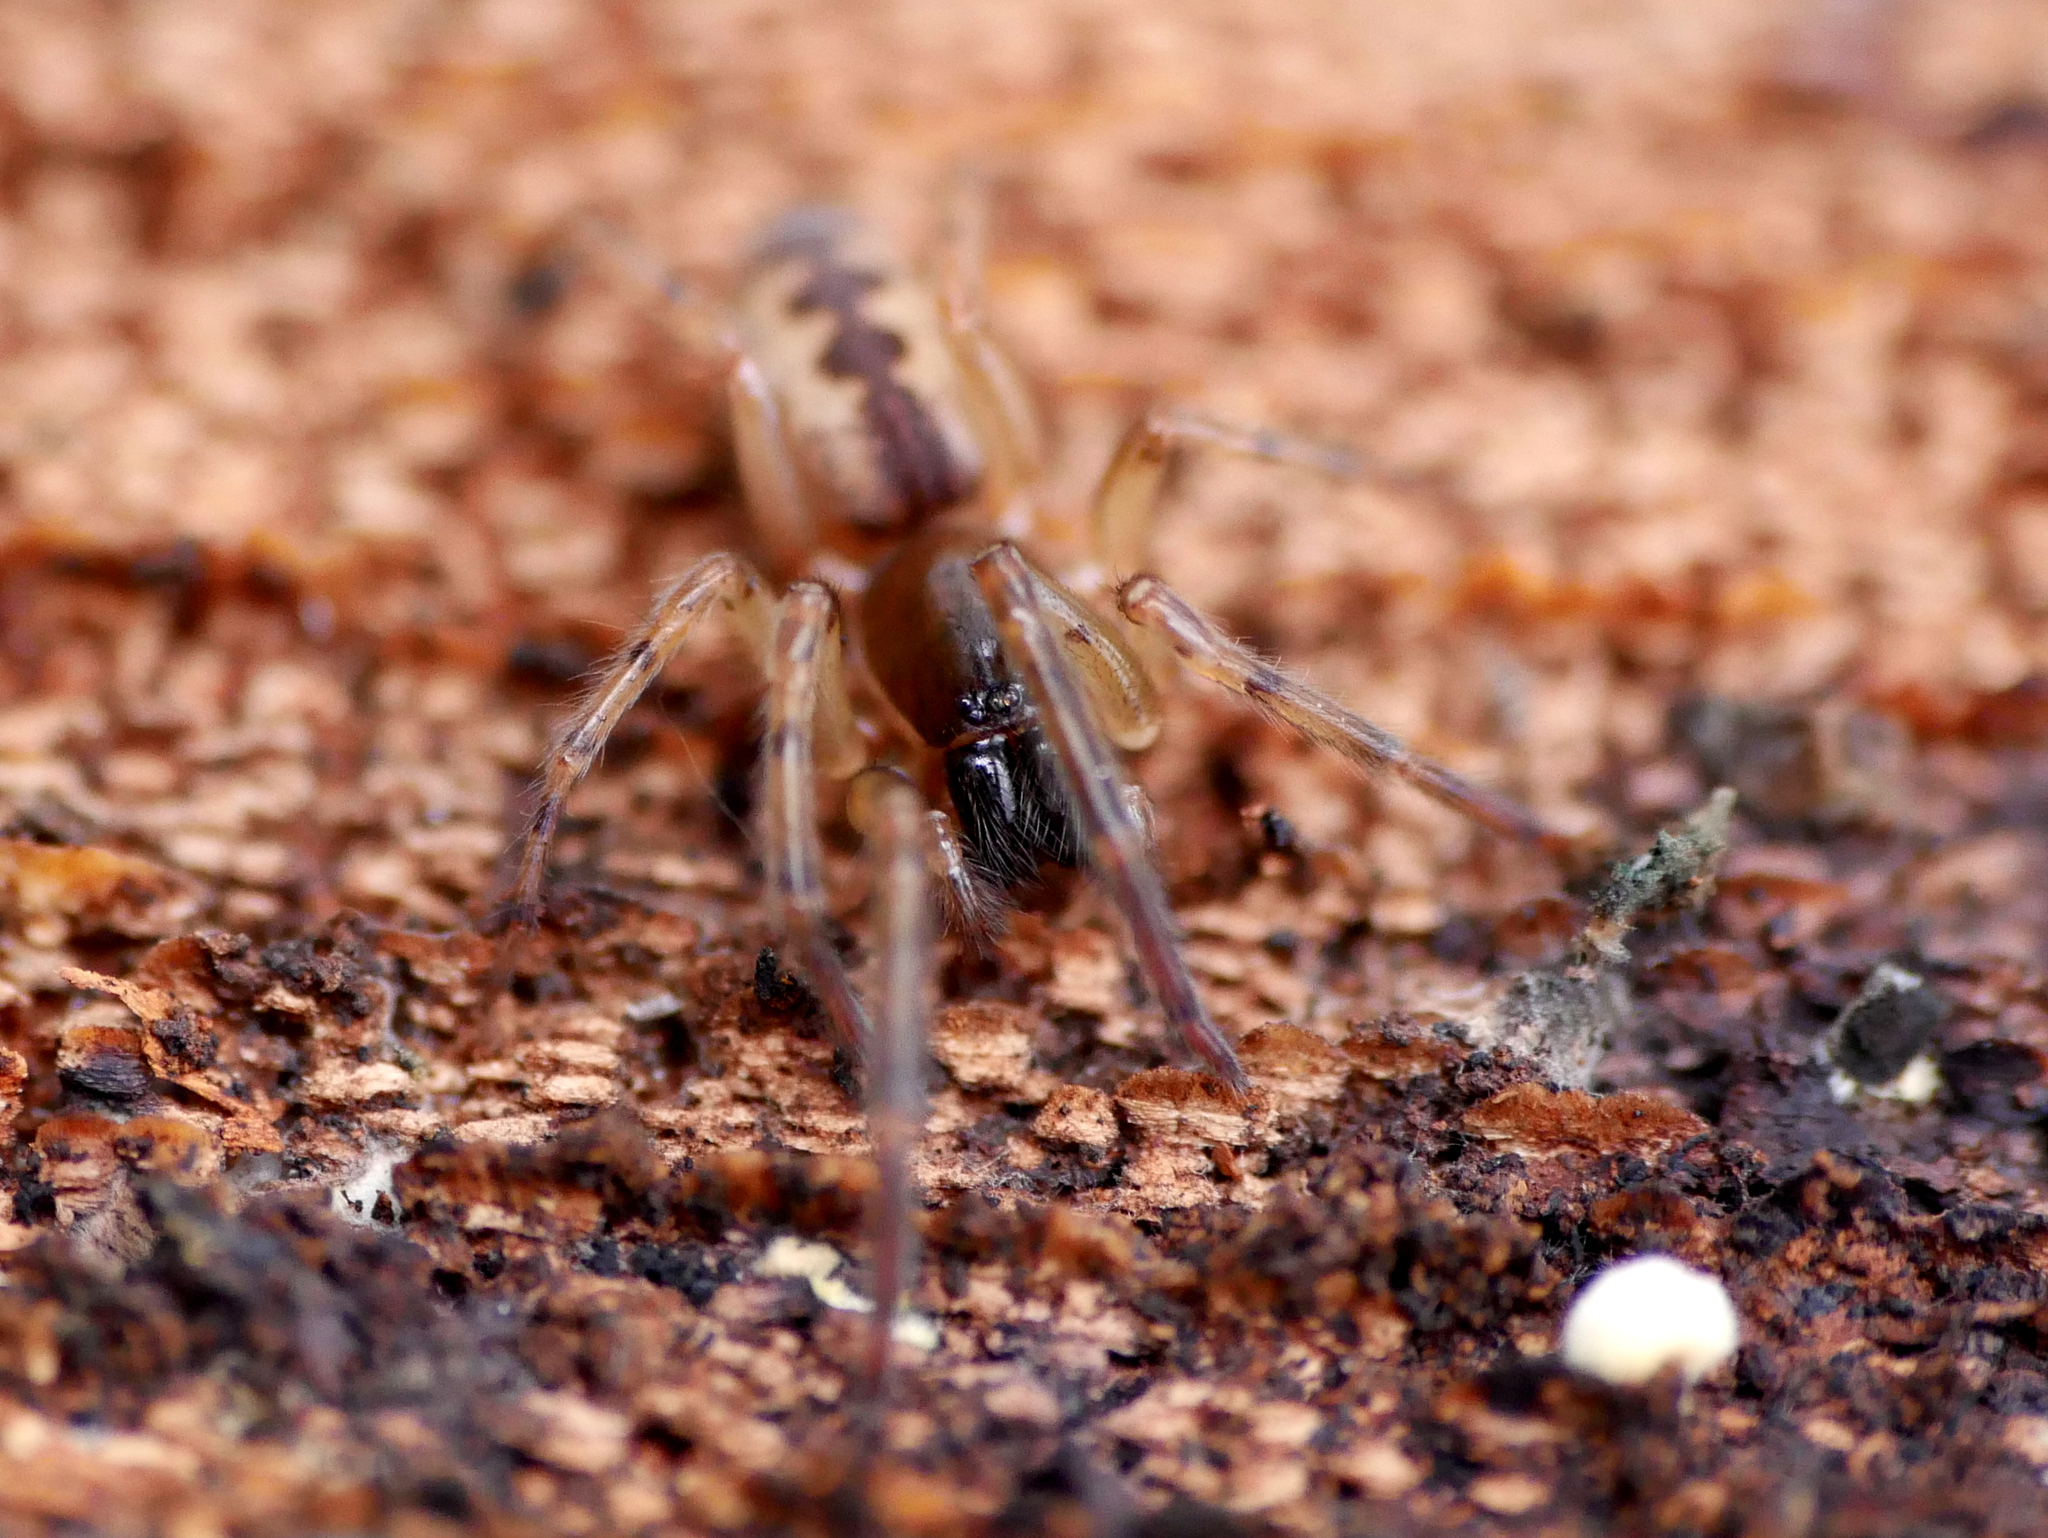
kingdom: Animalia
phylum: Arthropoda
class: Arachnida
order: Araneae
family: Segestriidae
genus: Segestria
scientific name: Segestria senoculata
